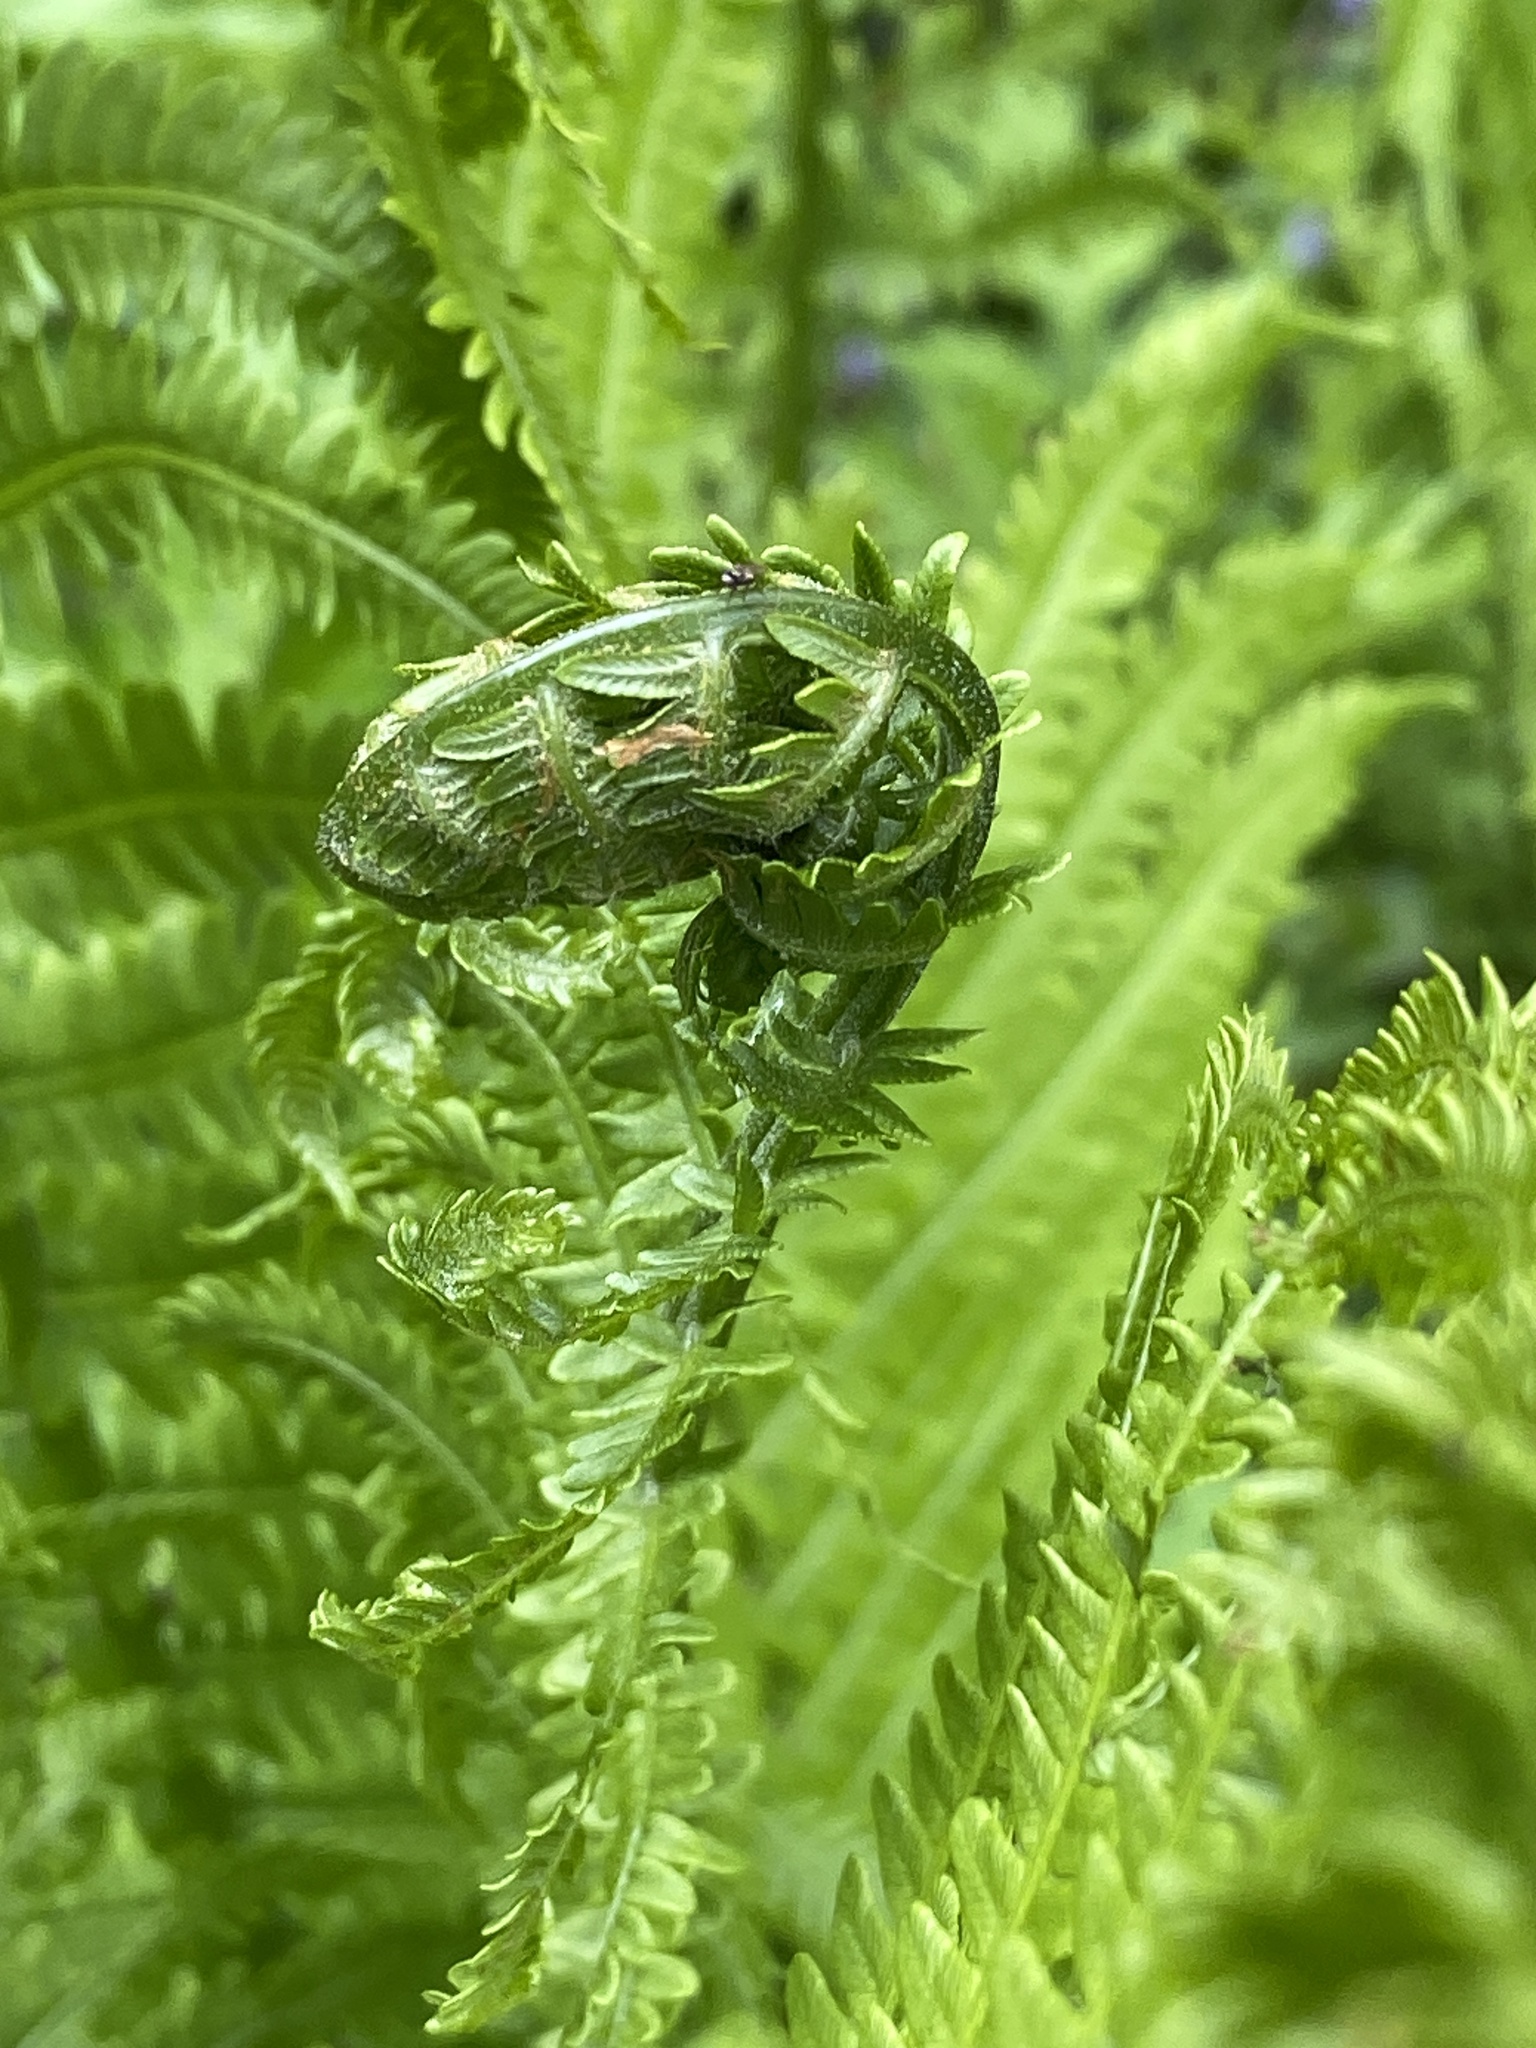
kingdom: Plantae
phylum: Tracheophyta
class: Polypodiopsida
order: Polypodiales
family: Onocleaceae
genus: Matteuccia
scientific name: Matteuccia struthiopteris
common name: Ostrich fern
